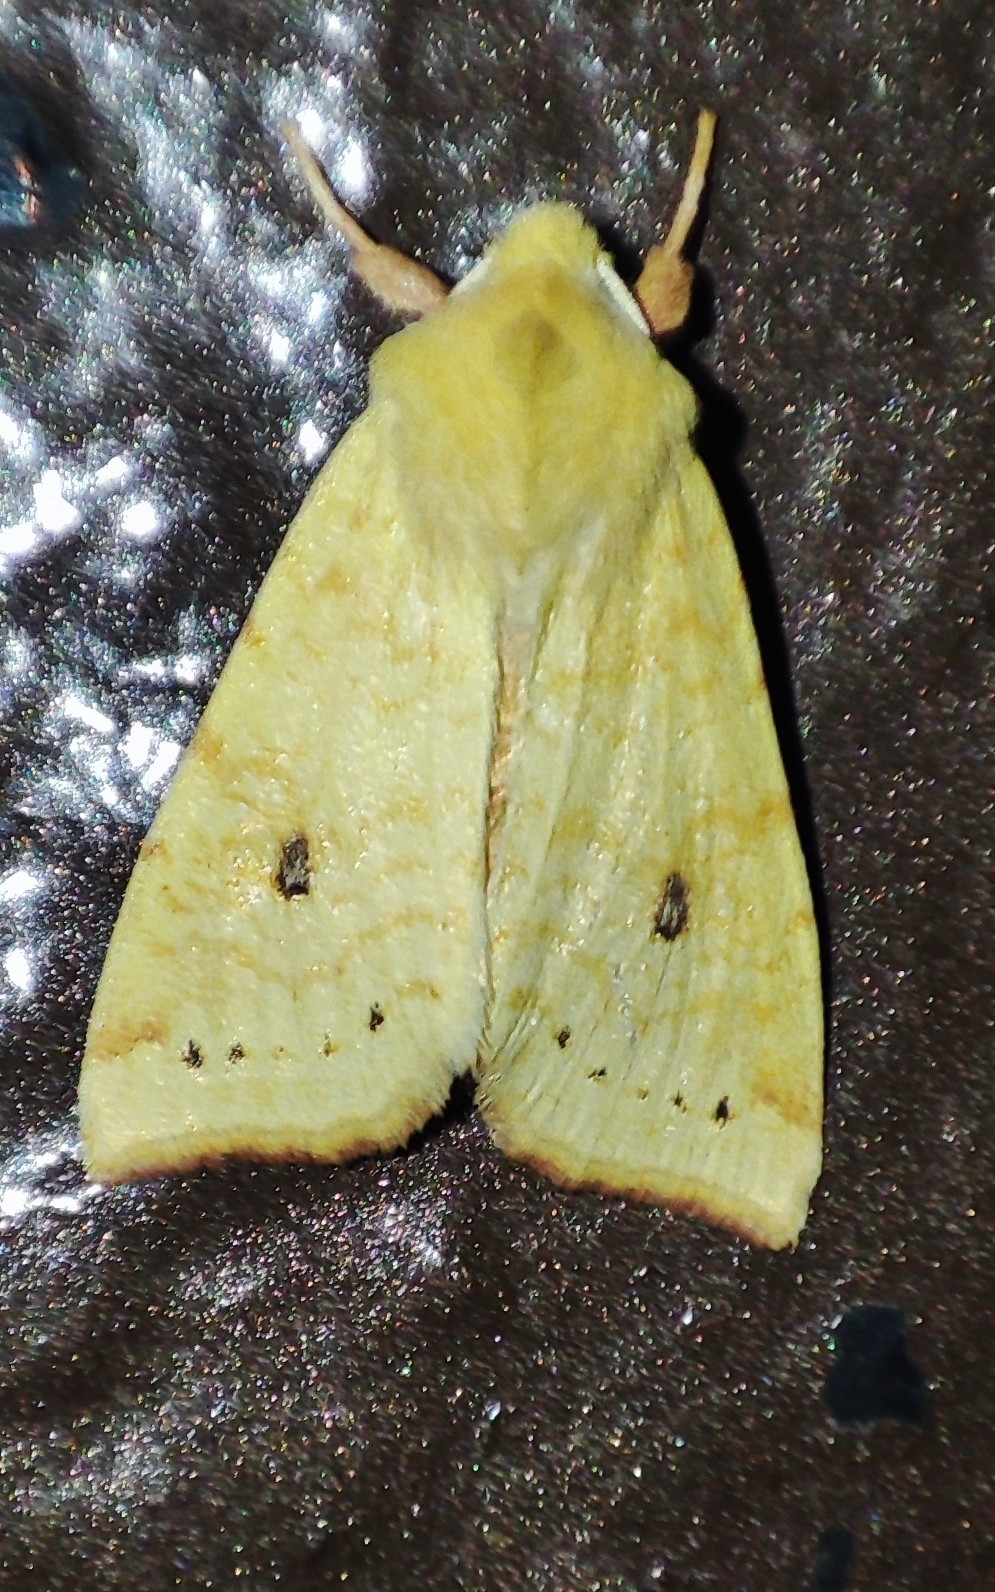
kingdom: Animalia
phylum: Arthropoda
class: Insecta
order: Lepidoptera
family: Noctuidae
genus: Xanthia
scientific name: Xanthia icteritia
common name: The sallow
